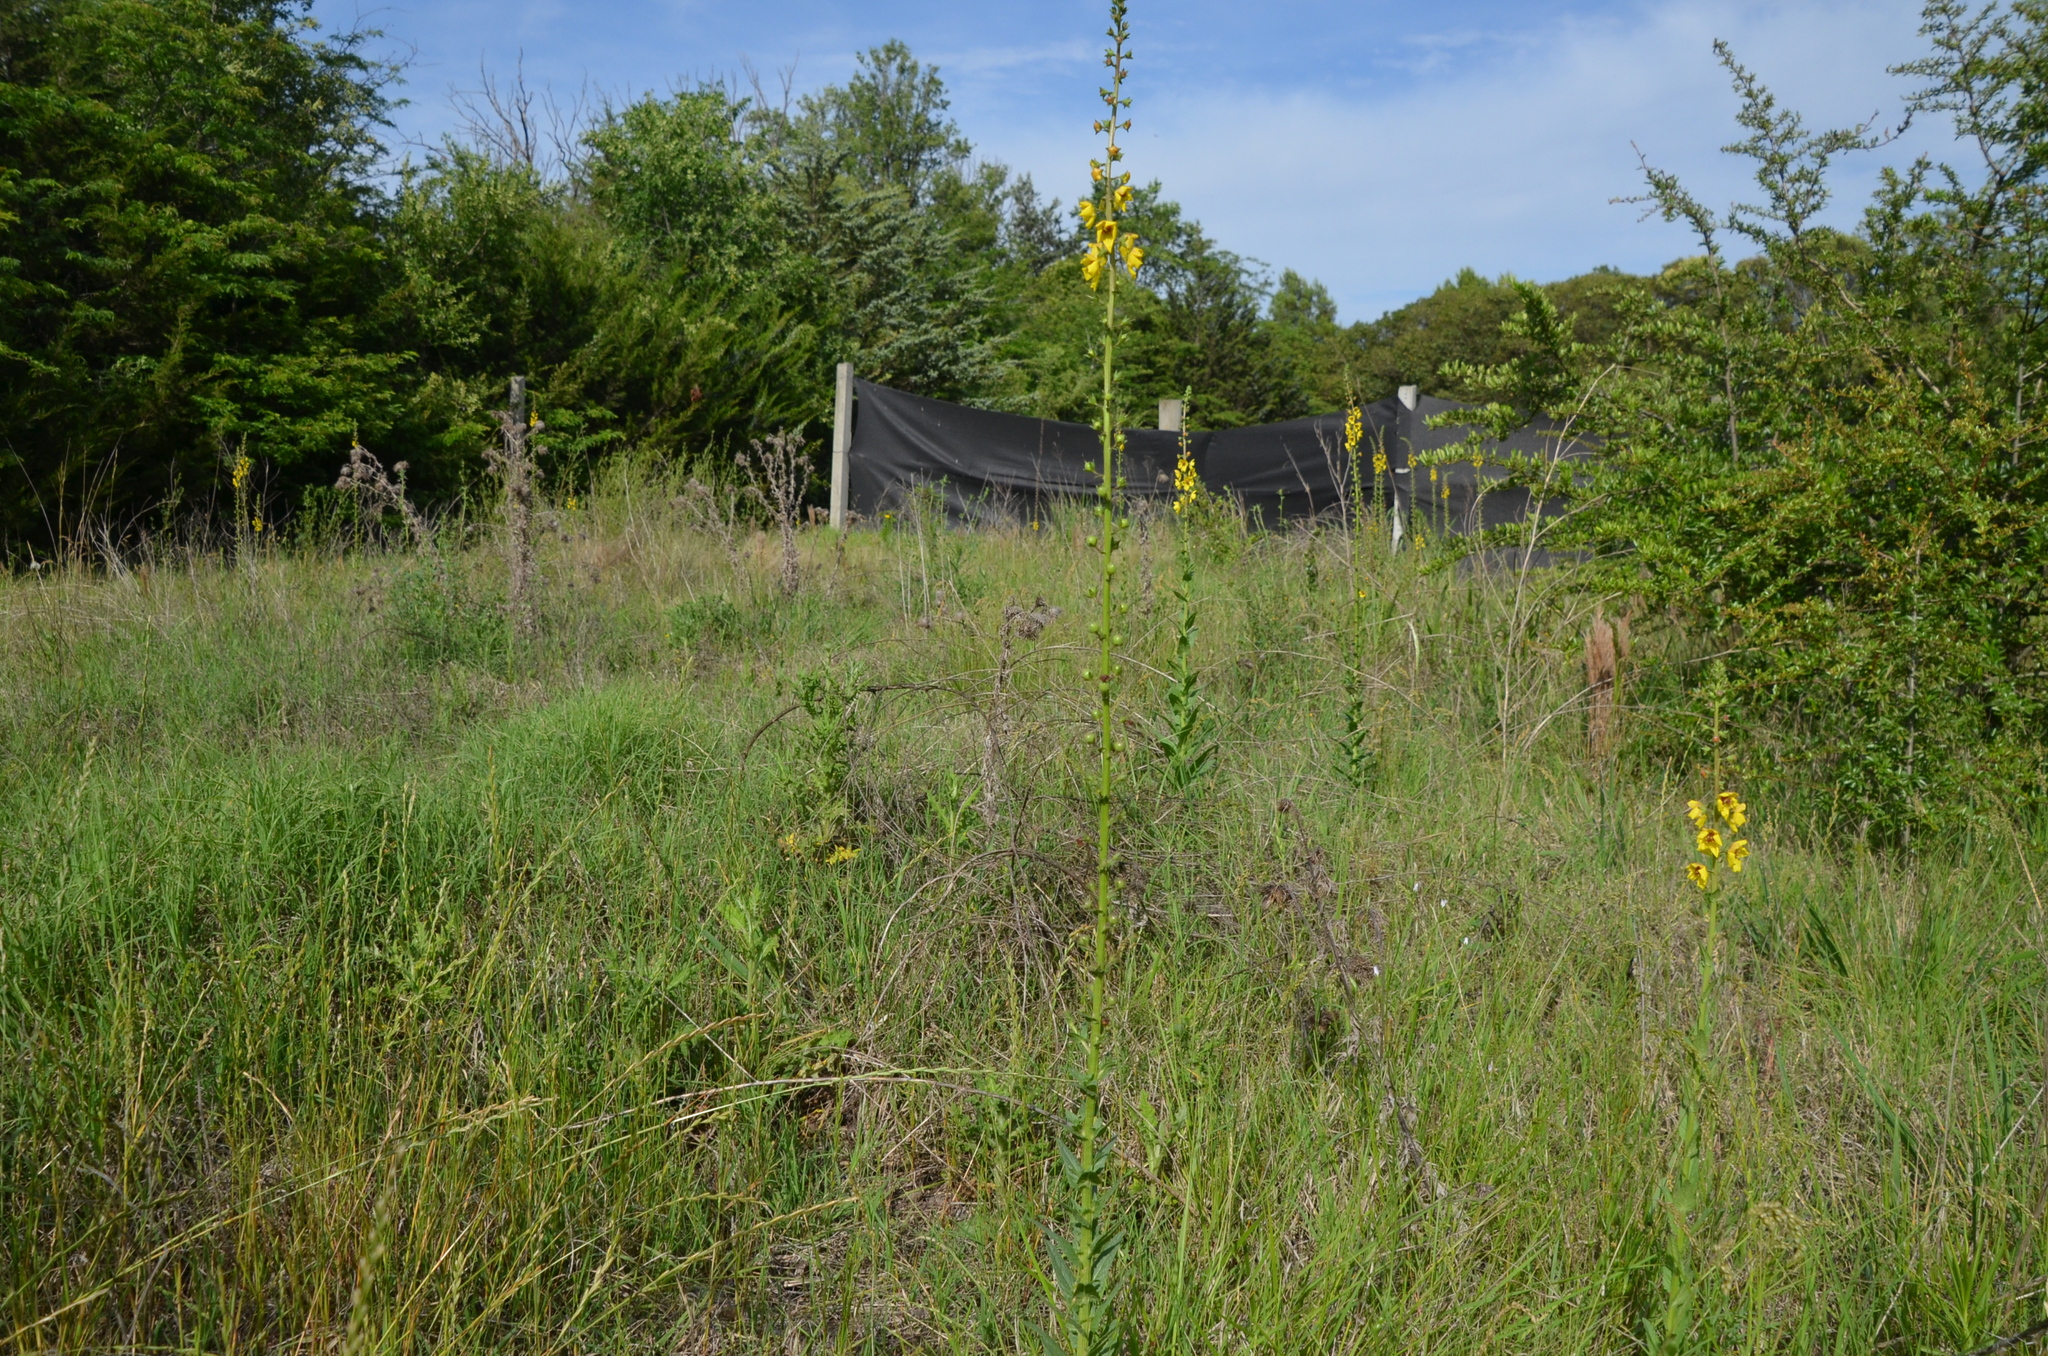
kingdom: Plantae
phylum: Tracheophyta
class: Magnoliopsida
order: Lamiales
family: Scrophulariaceae
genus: Verbascum
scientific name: Verbascum virgatum
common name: Twiggy mullein
